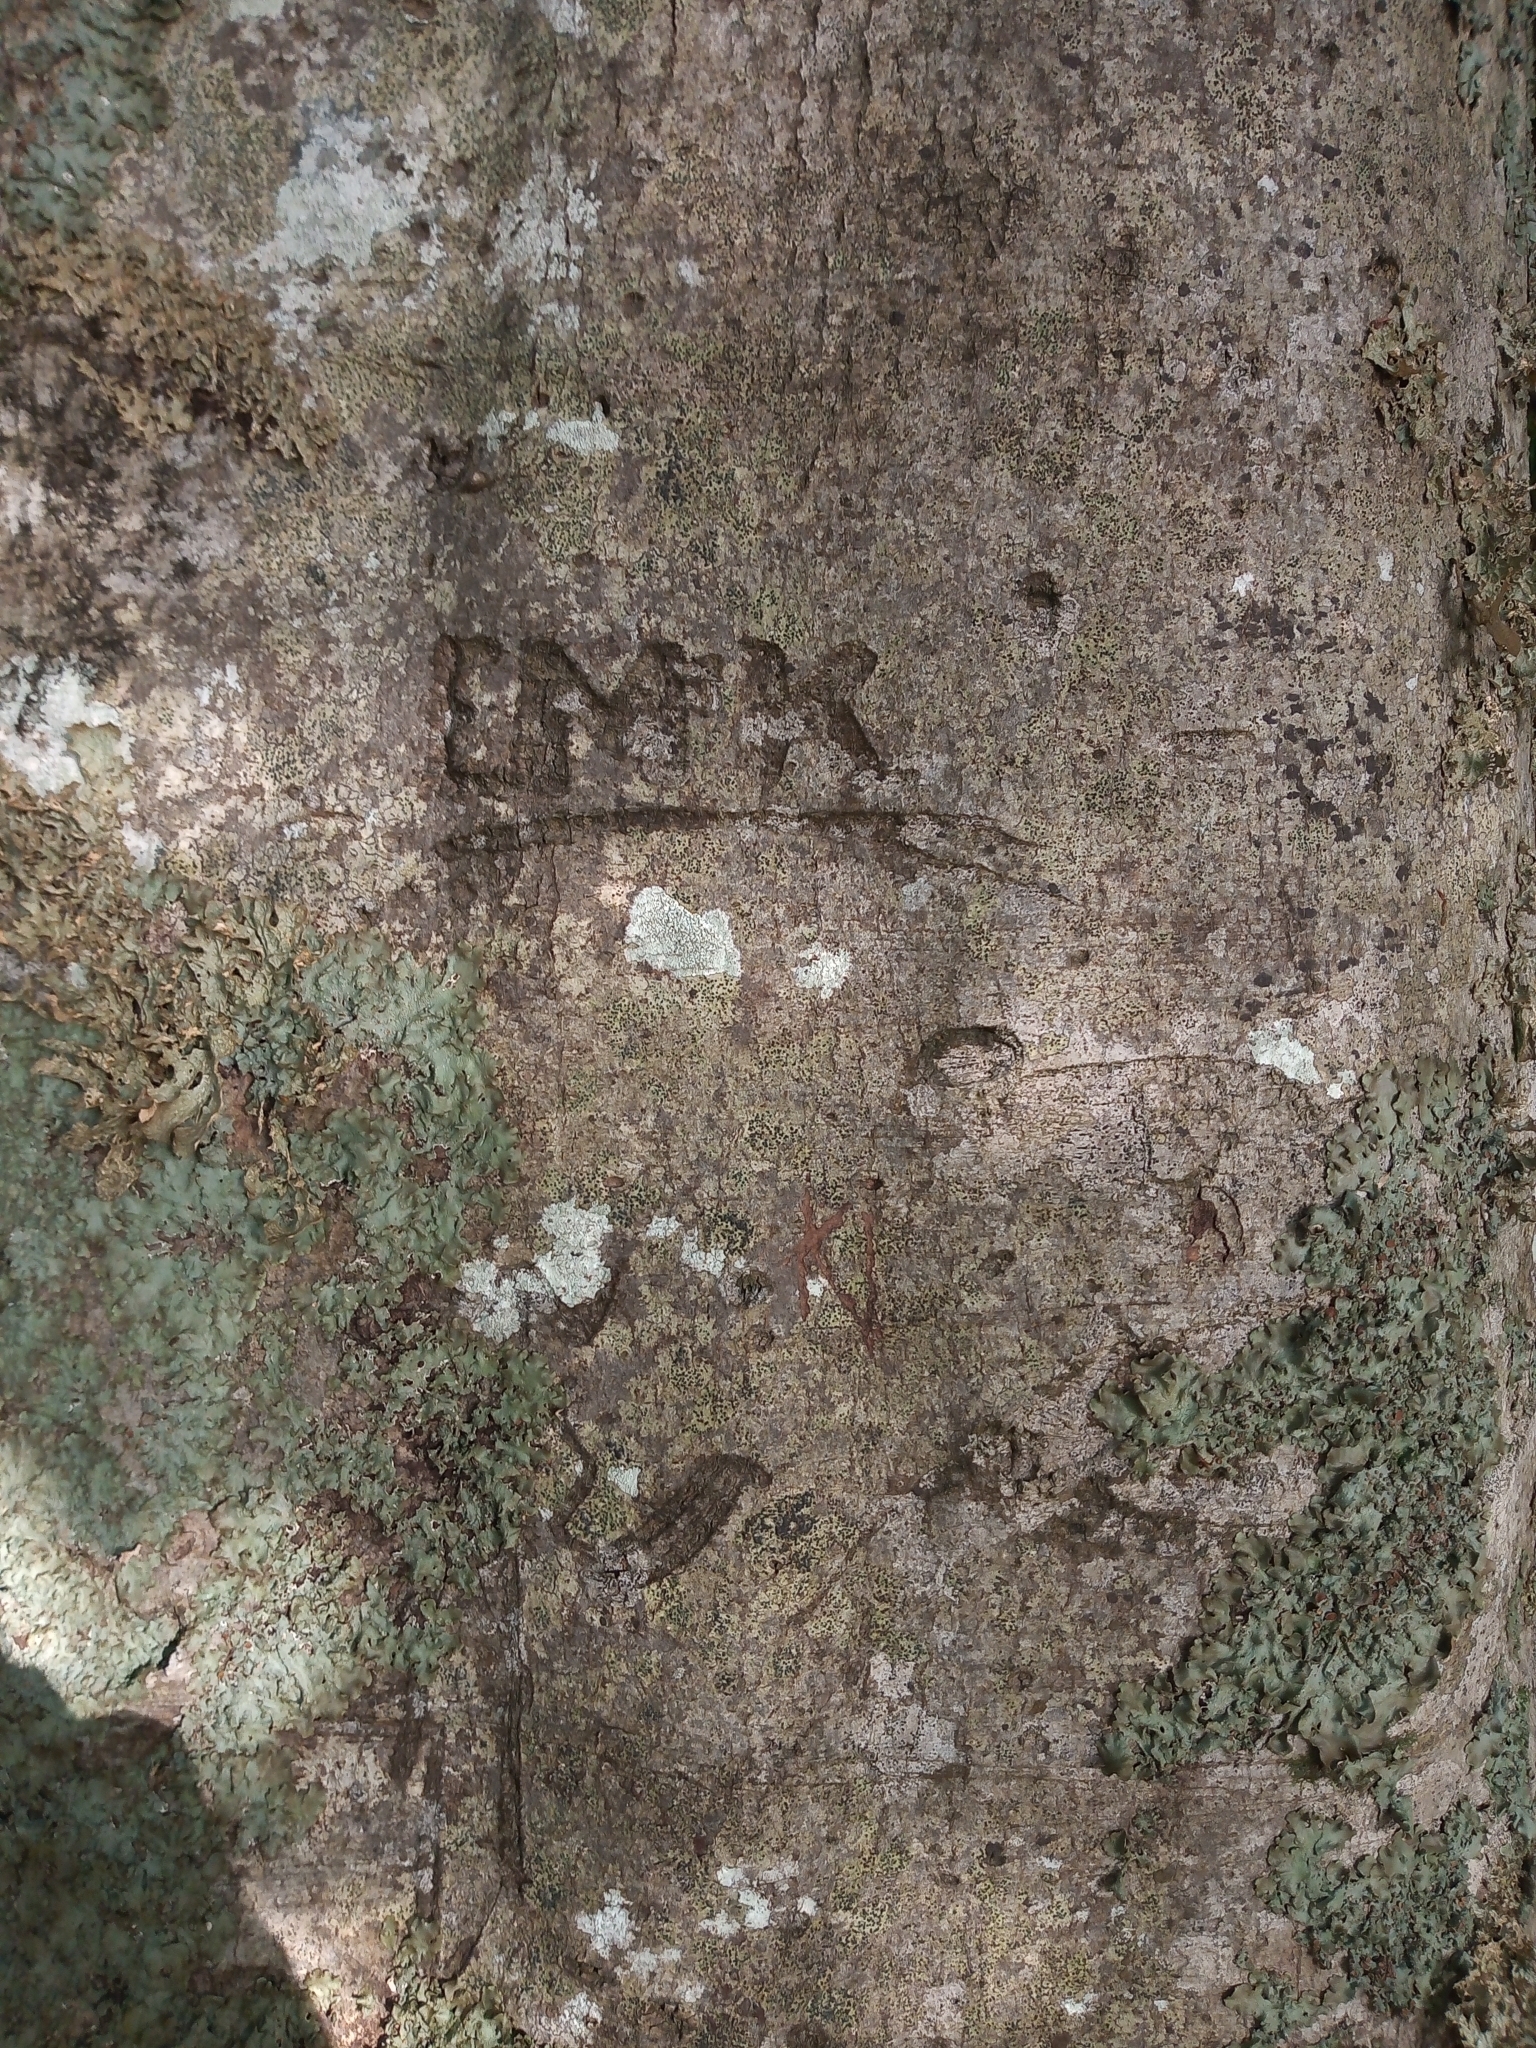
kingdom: Plantae
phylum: Tracheophyta
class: Magnoliopsida
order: Fagales
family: Fagaceae
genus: Fagus
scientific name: Fagus sylvatica
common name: Beech
